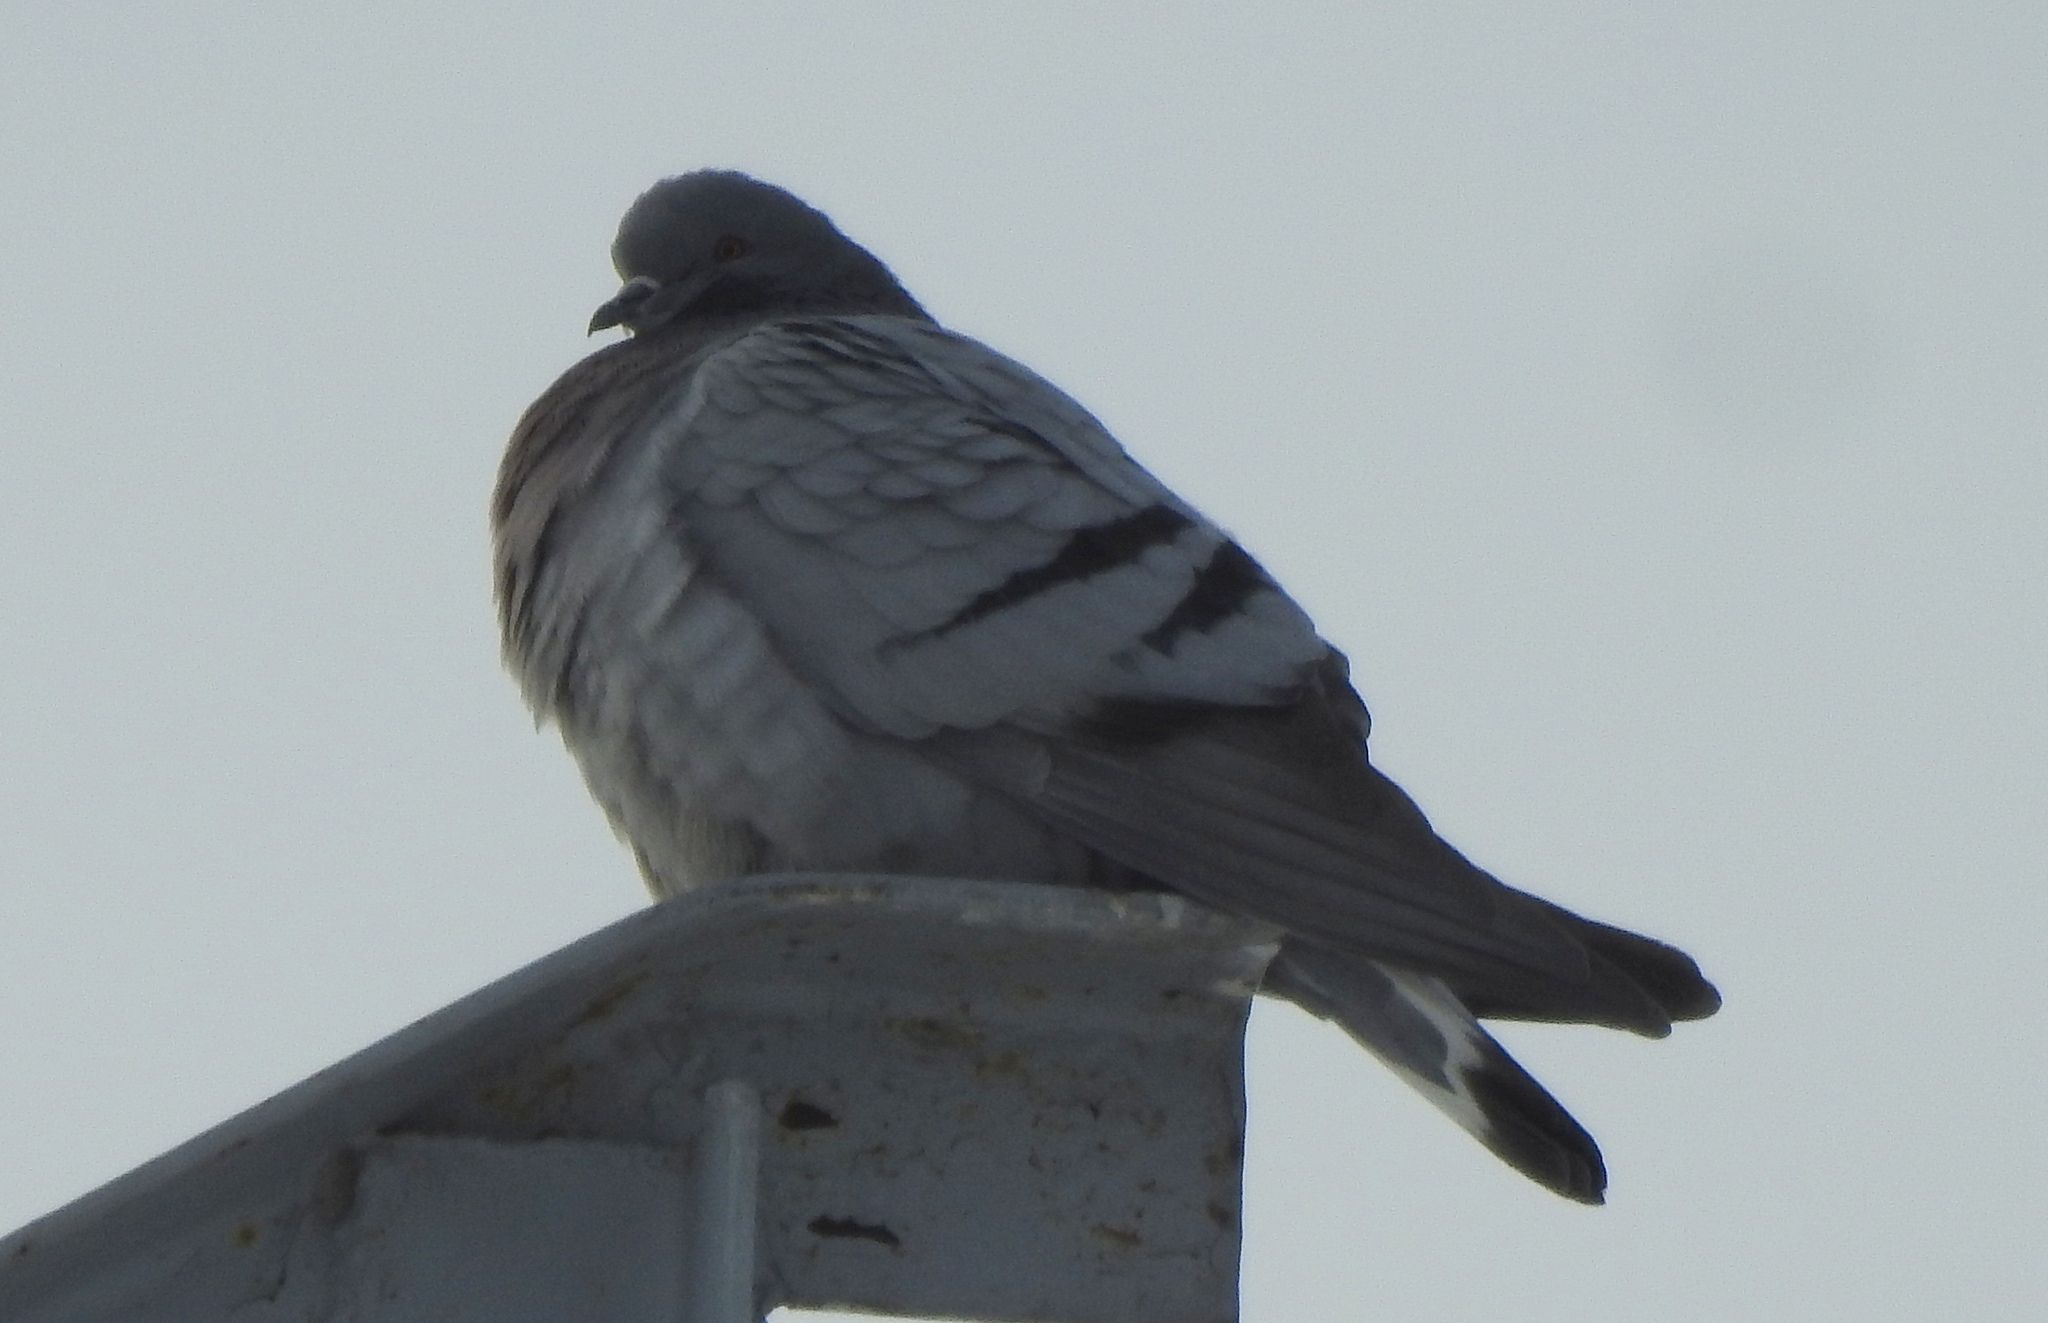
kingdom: Animalia
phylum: Chordata
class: Aves
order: Columbiformes
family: Columbidae
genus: Columba
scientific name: Columba rupestris
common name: Hill pigeon
